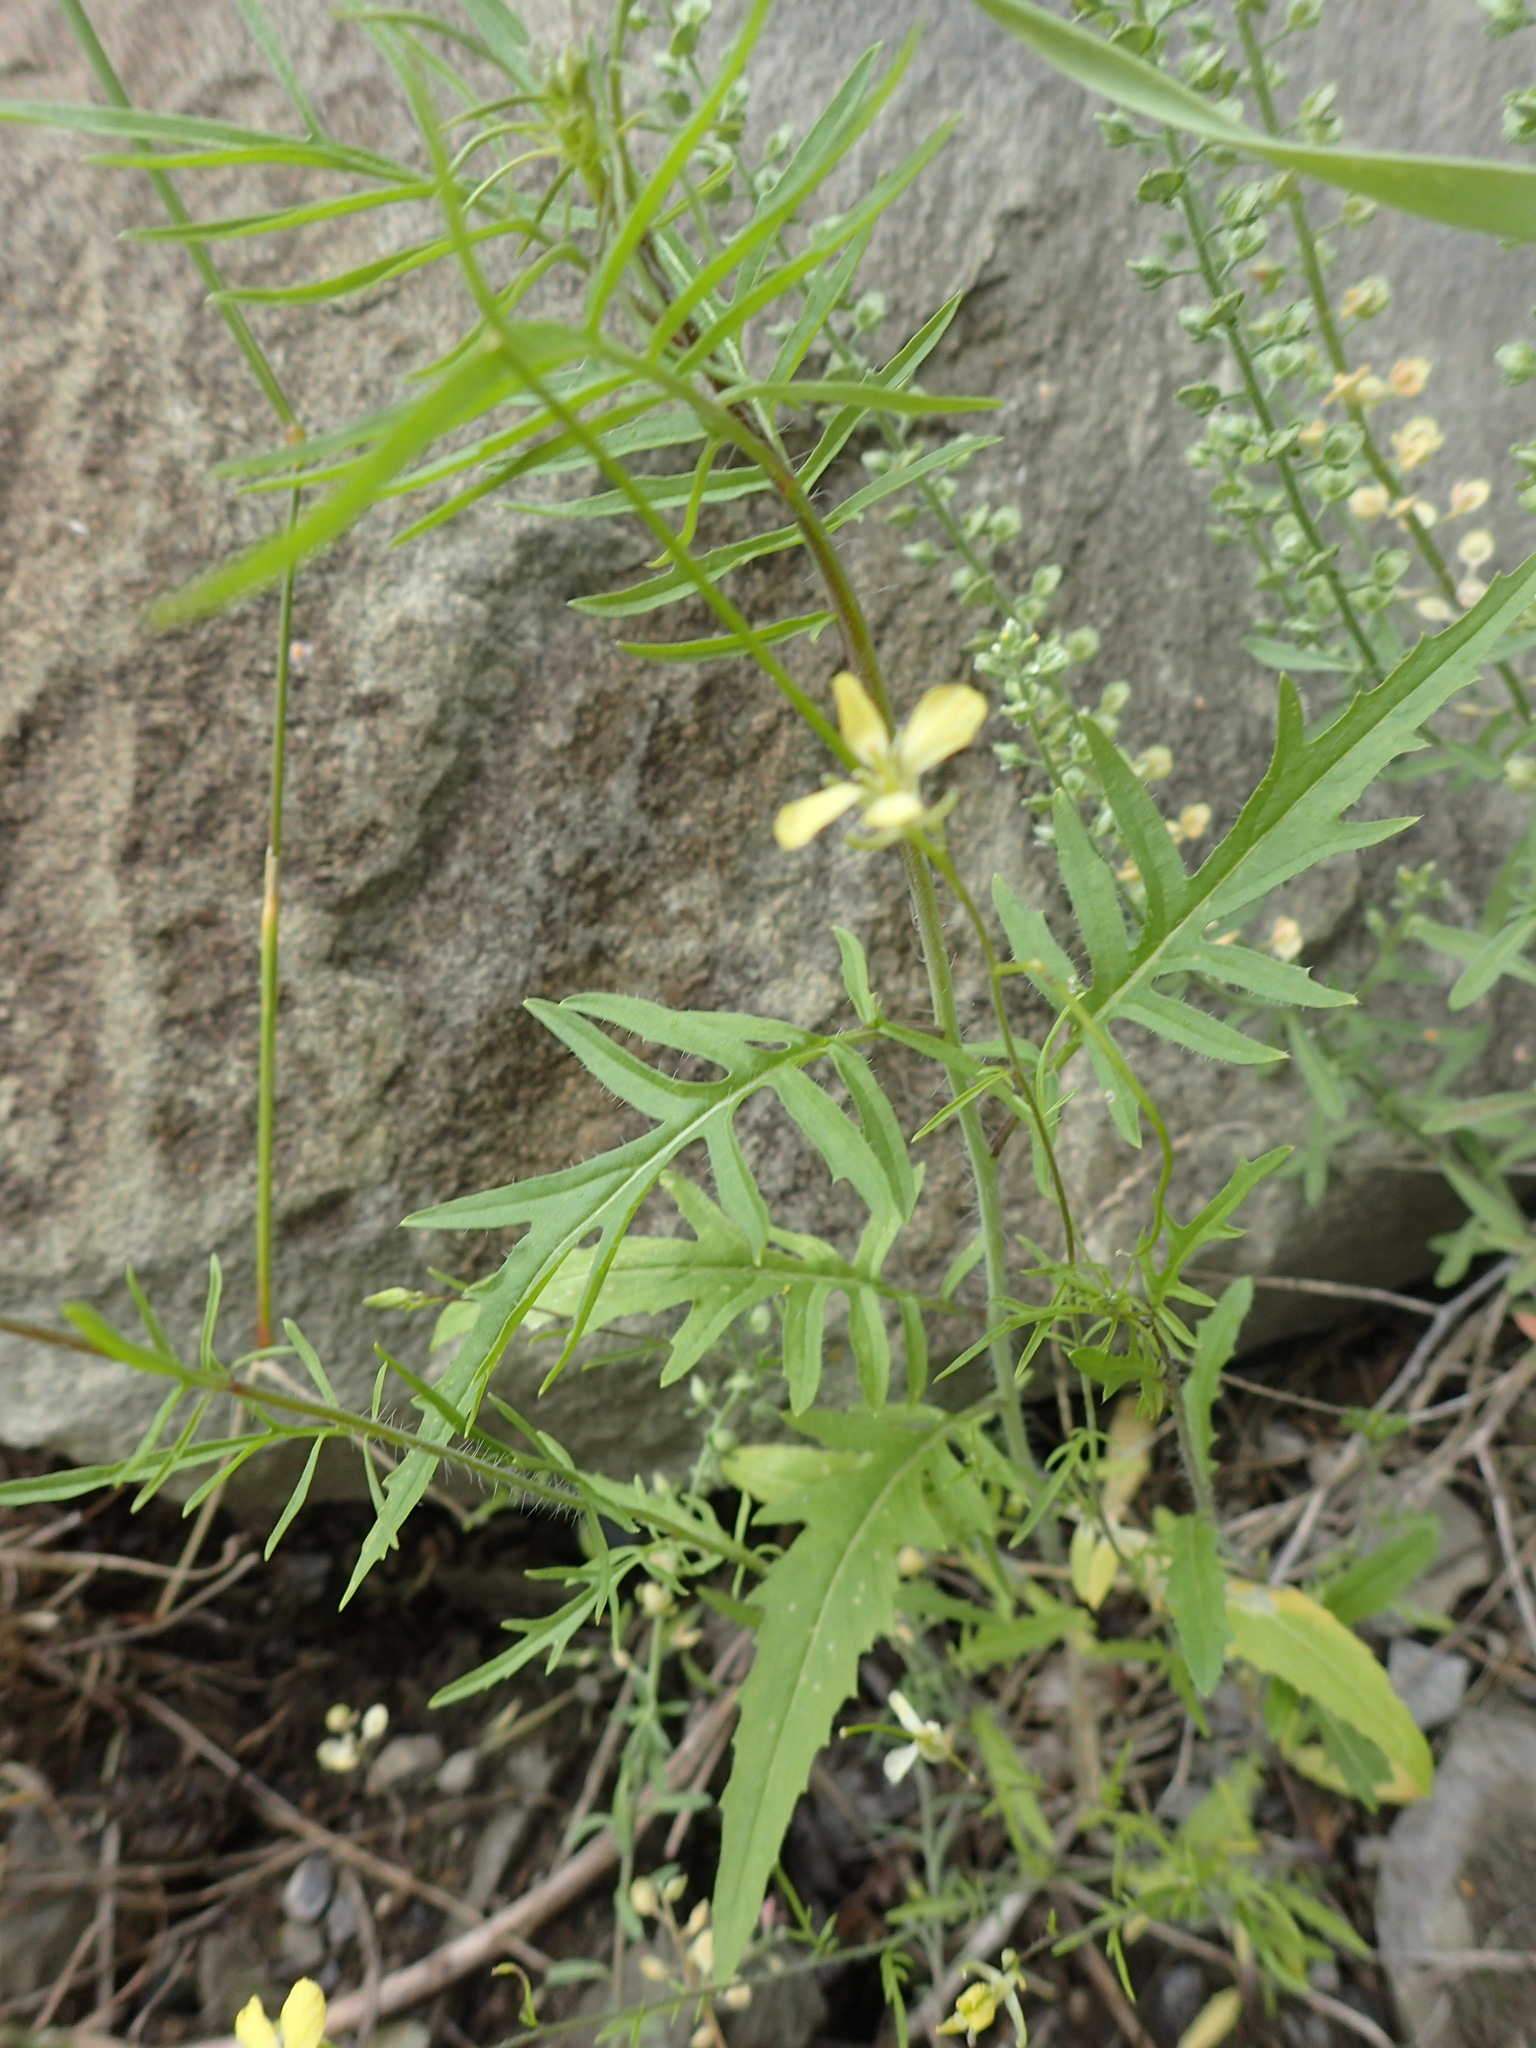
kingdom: Plantae
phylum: Tracheophyta
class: Magnoliopsida
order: Brassicales
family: Brassicaceae
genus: Sisymbrium
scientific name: Sisymbrium altissimum
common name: Tall rocket
